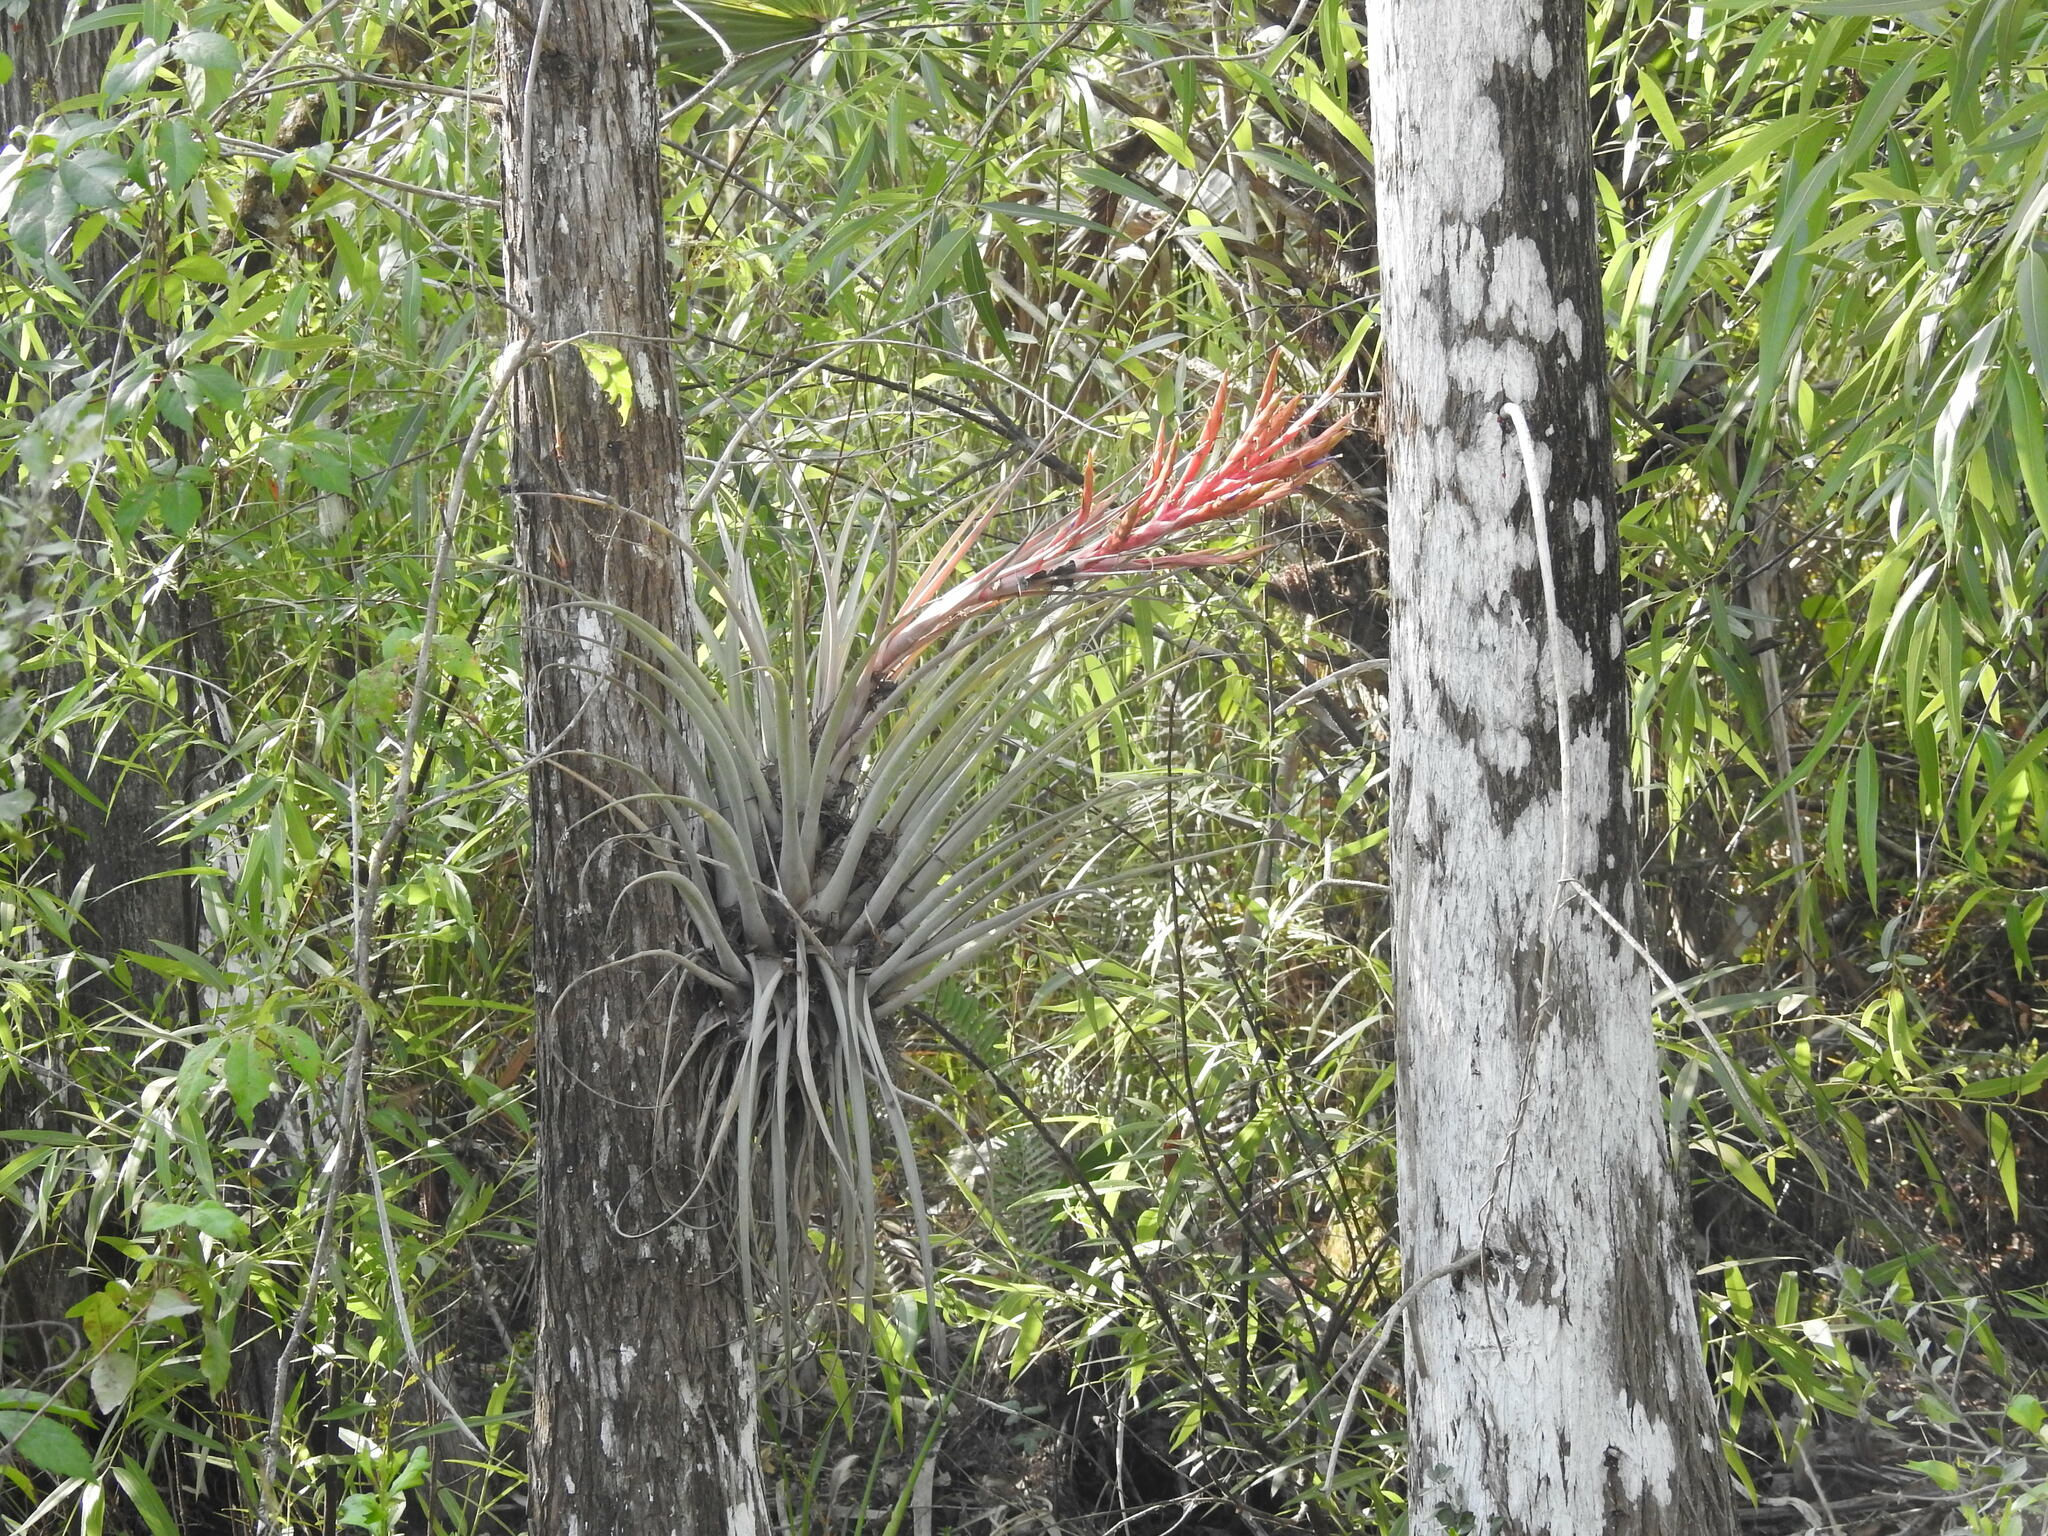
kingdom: Plantae
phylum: Tracheophyta
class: Liliopsida
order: Poales
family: Bromeliaceae
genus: Tillandsia
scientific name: Tillandsia fasciculata
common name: Giant airplant
